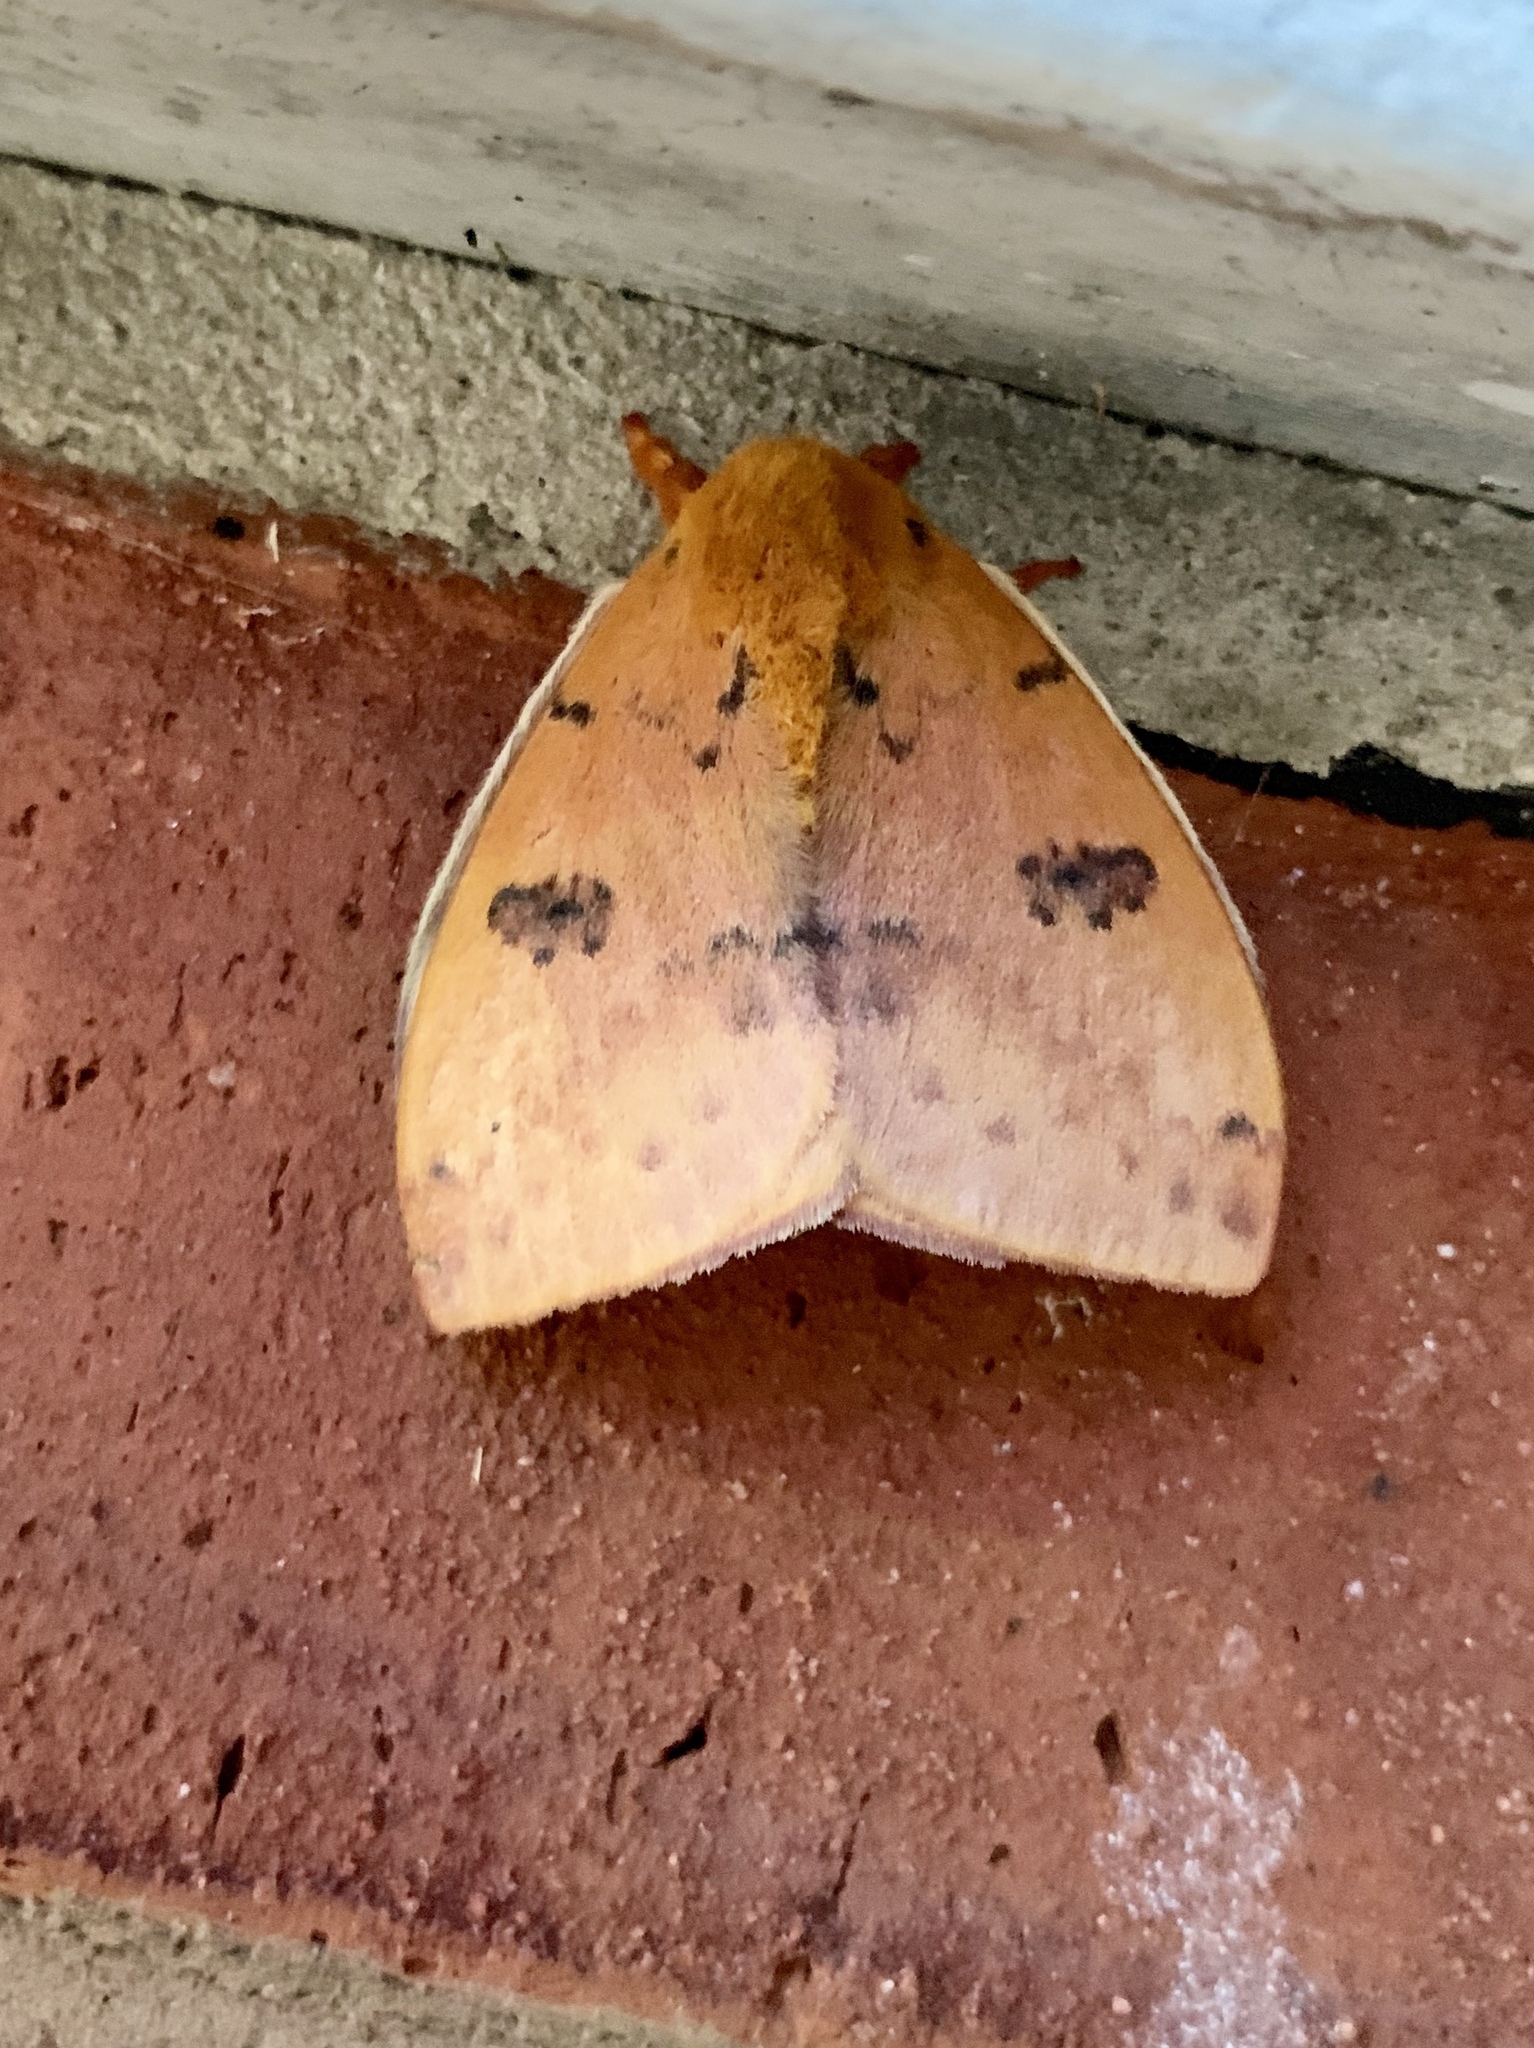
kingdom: Animalia
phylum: Arthropoda
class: Insecta
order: Lepidoptera
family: Saturniidae
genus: Automeris
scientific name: Automeris io
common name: Io moth
